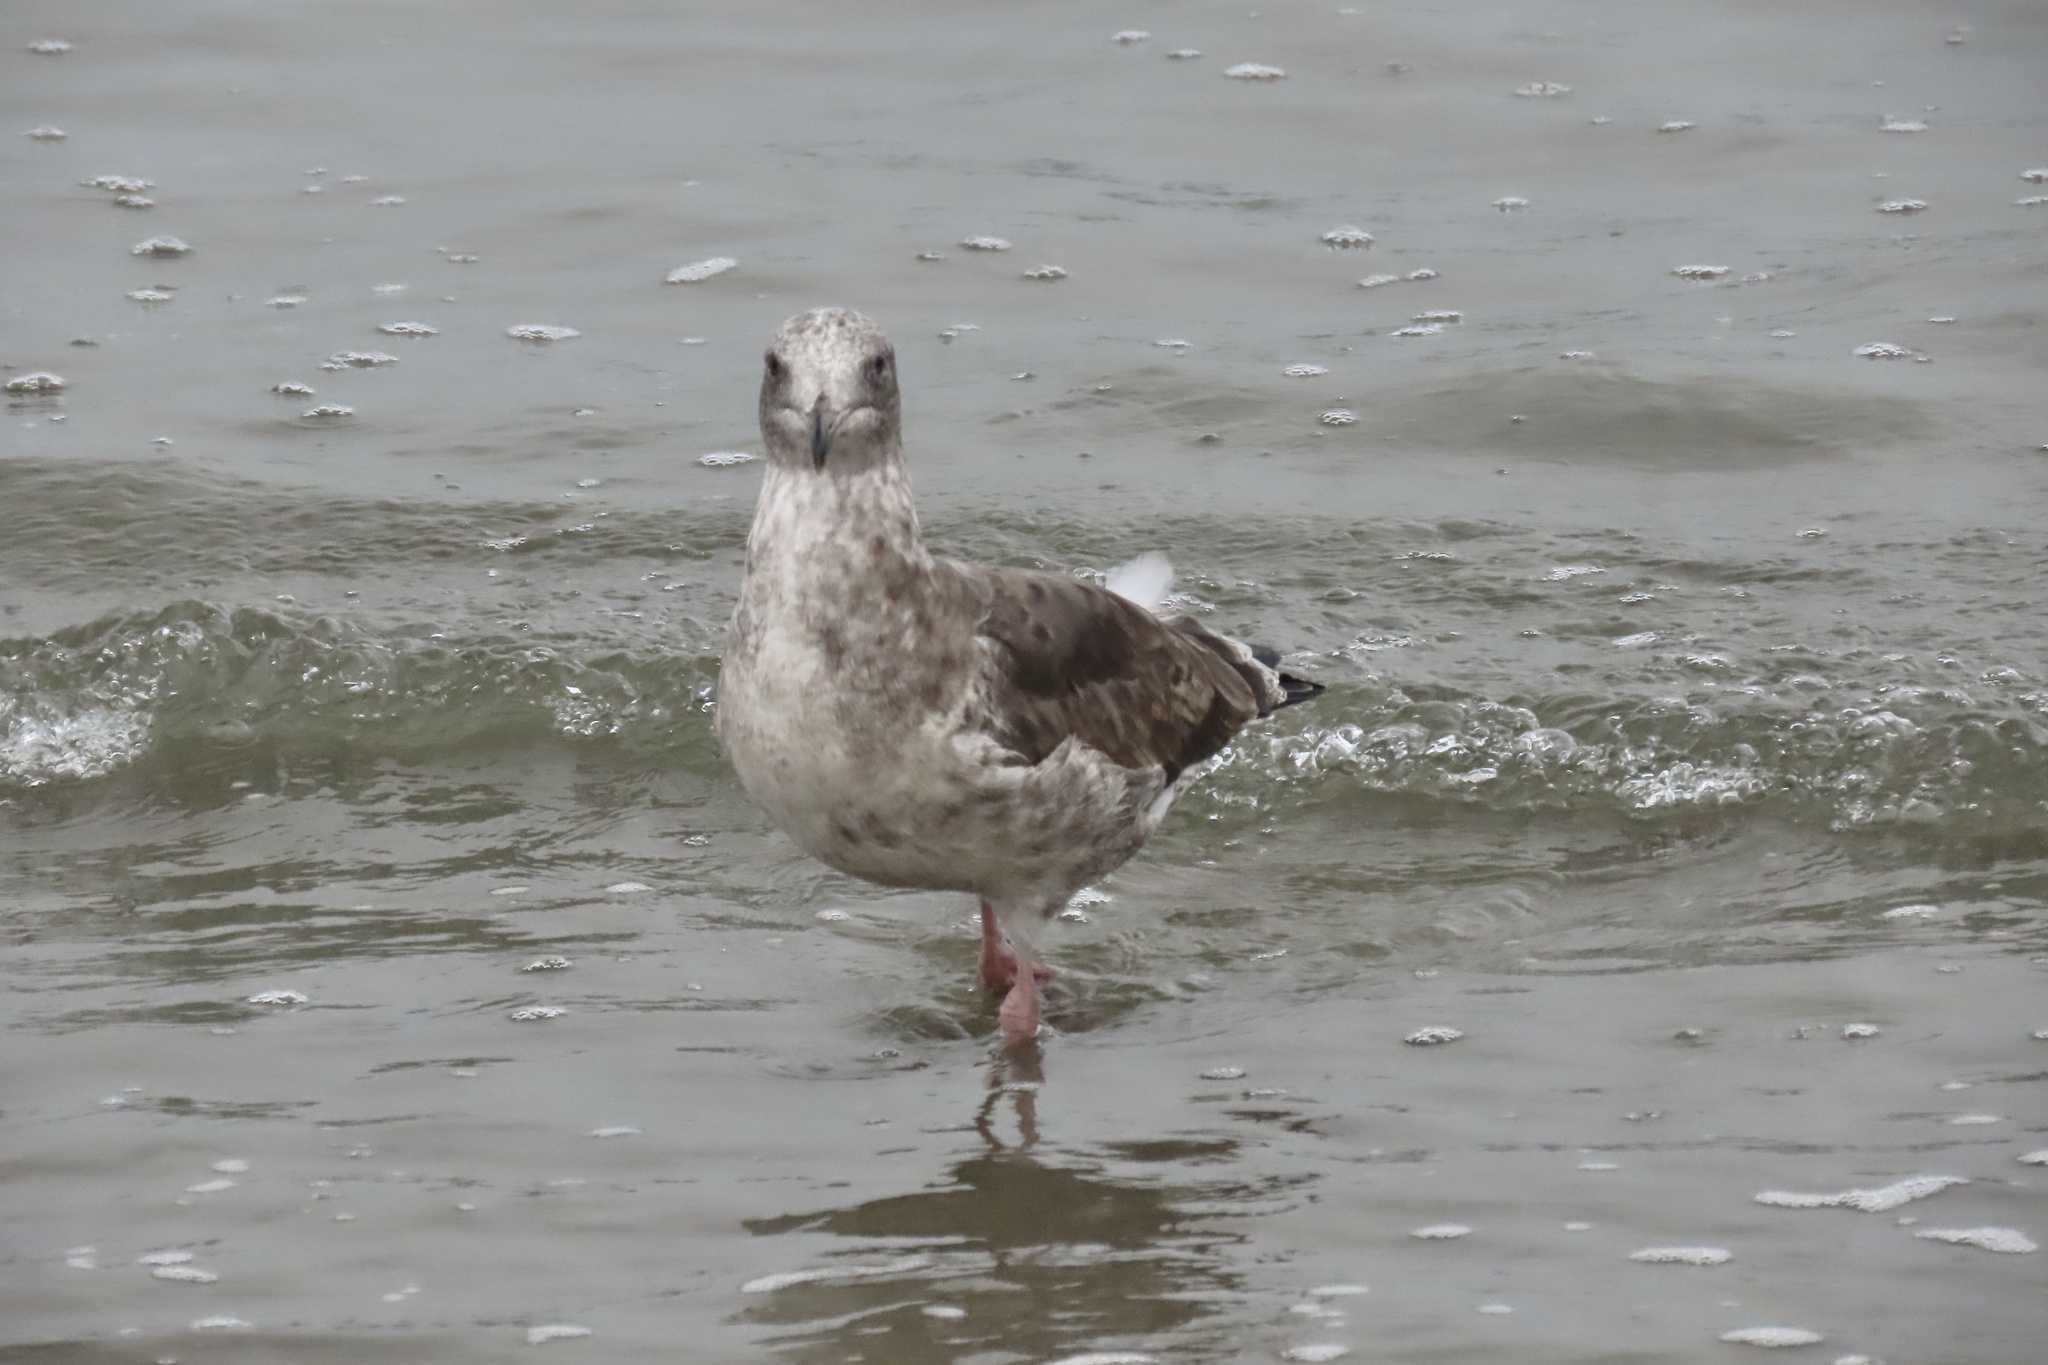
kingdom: Animalia
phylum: Chordata
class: Aves
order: Charadriiformes
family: Laridae
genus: Larus
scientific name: Larus occidentalis
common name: Western gull
